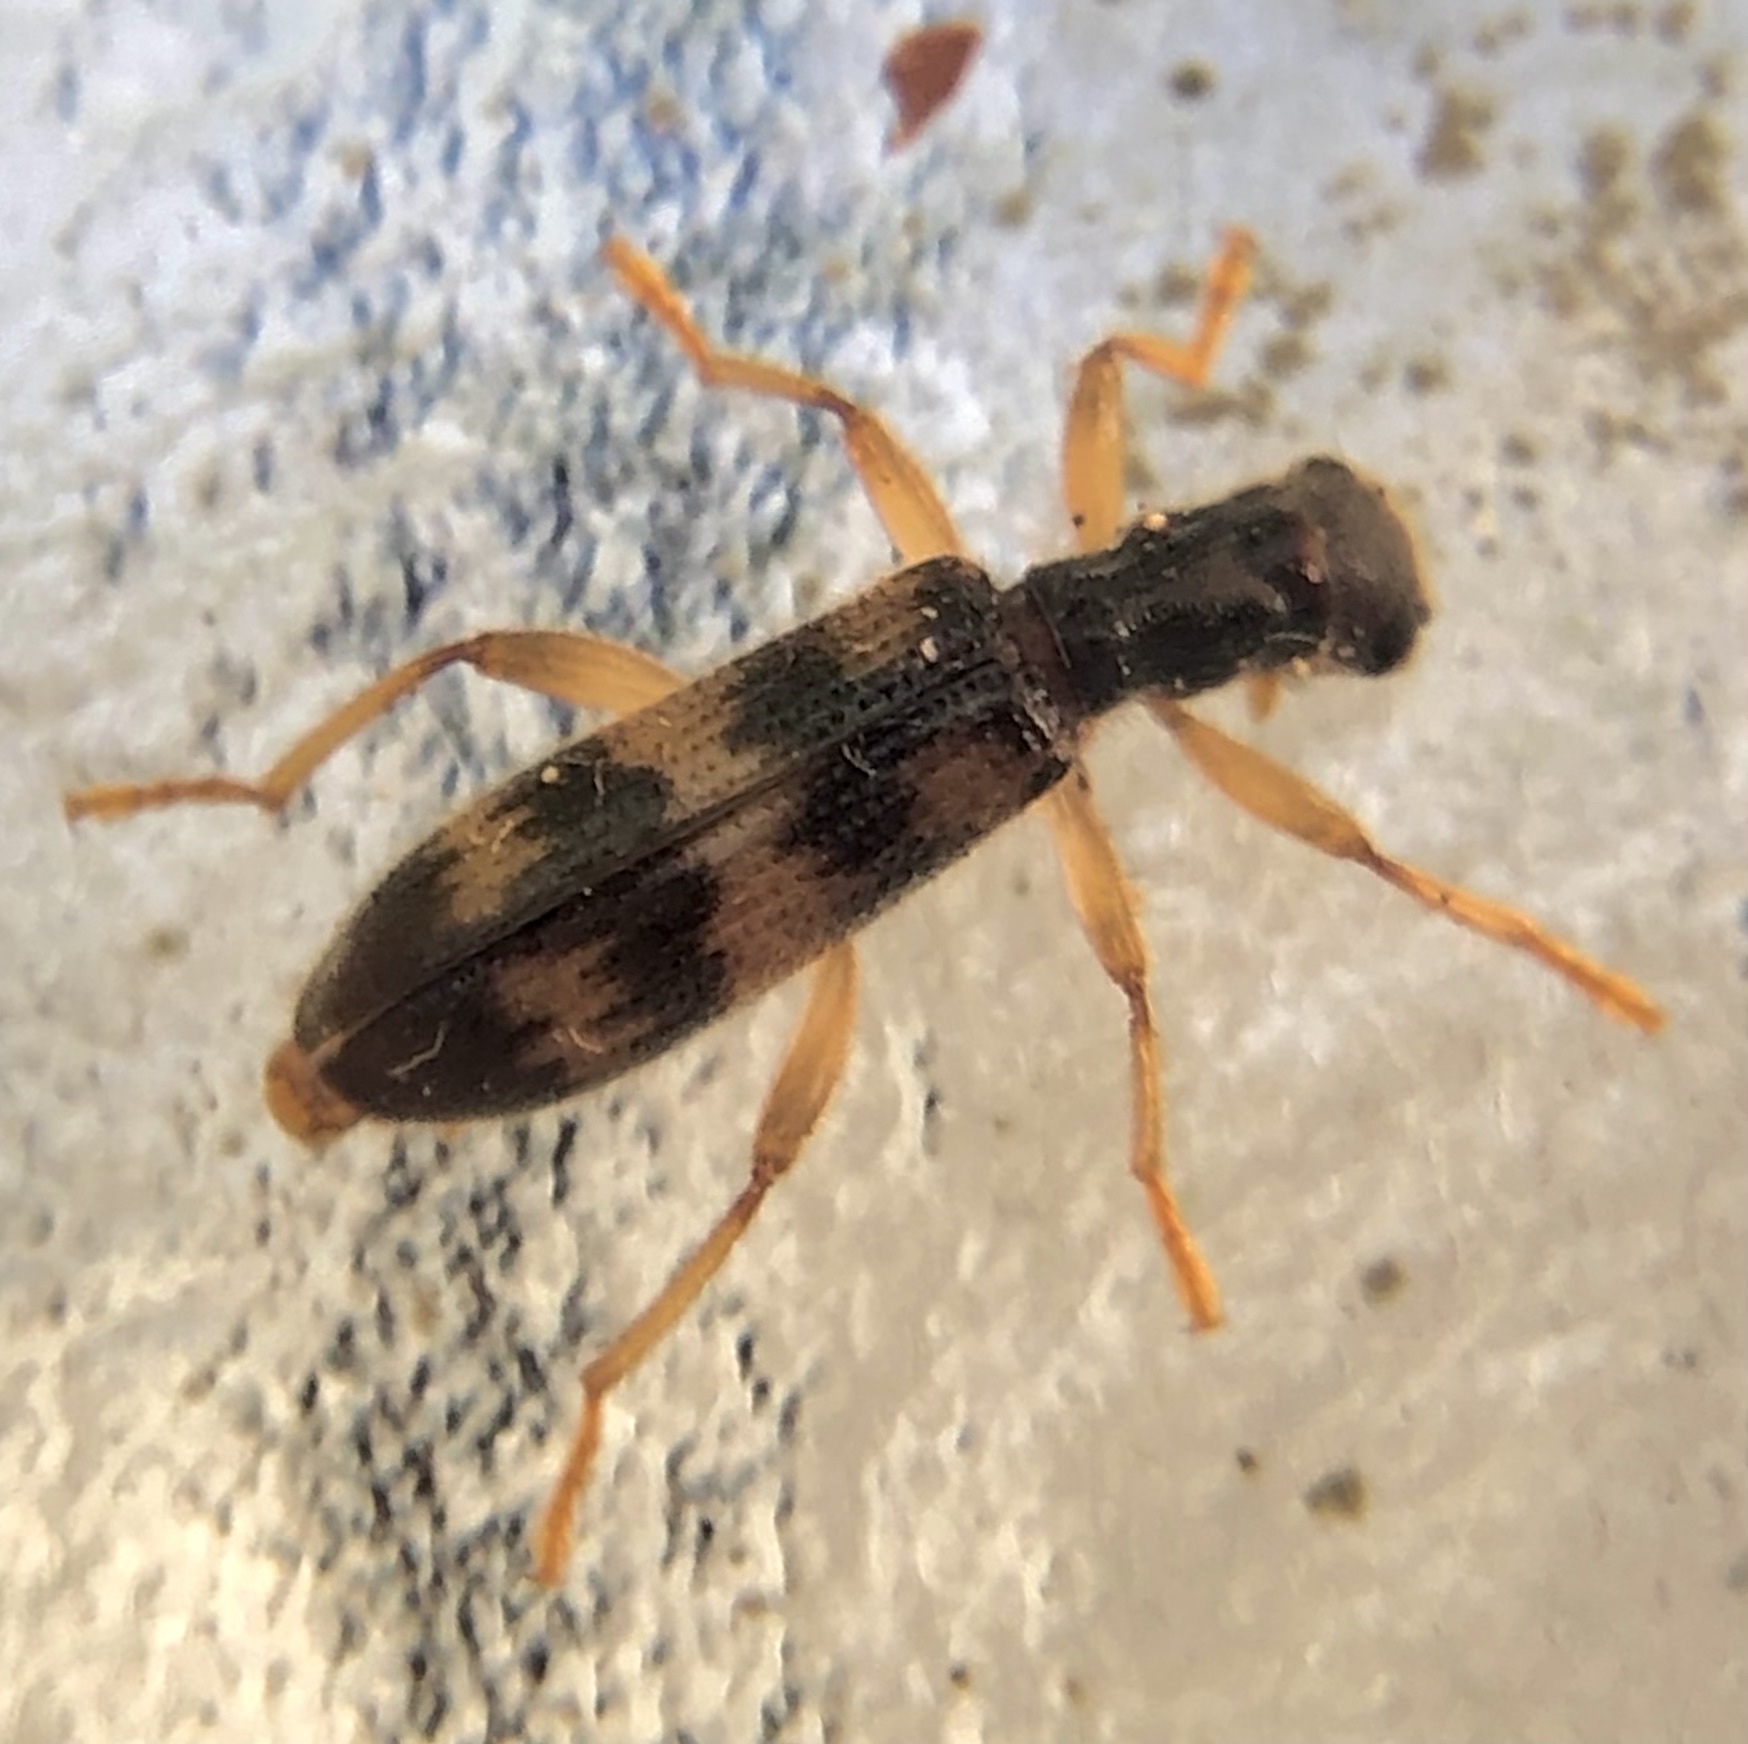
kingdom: Animalia
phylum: Arthropoda
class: Insecta
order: Coleoptera
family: Cleridae
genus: Cymatodera
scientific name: Cymatodera undulata
